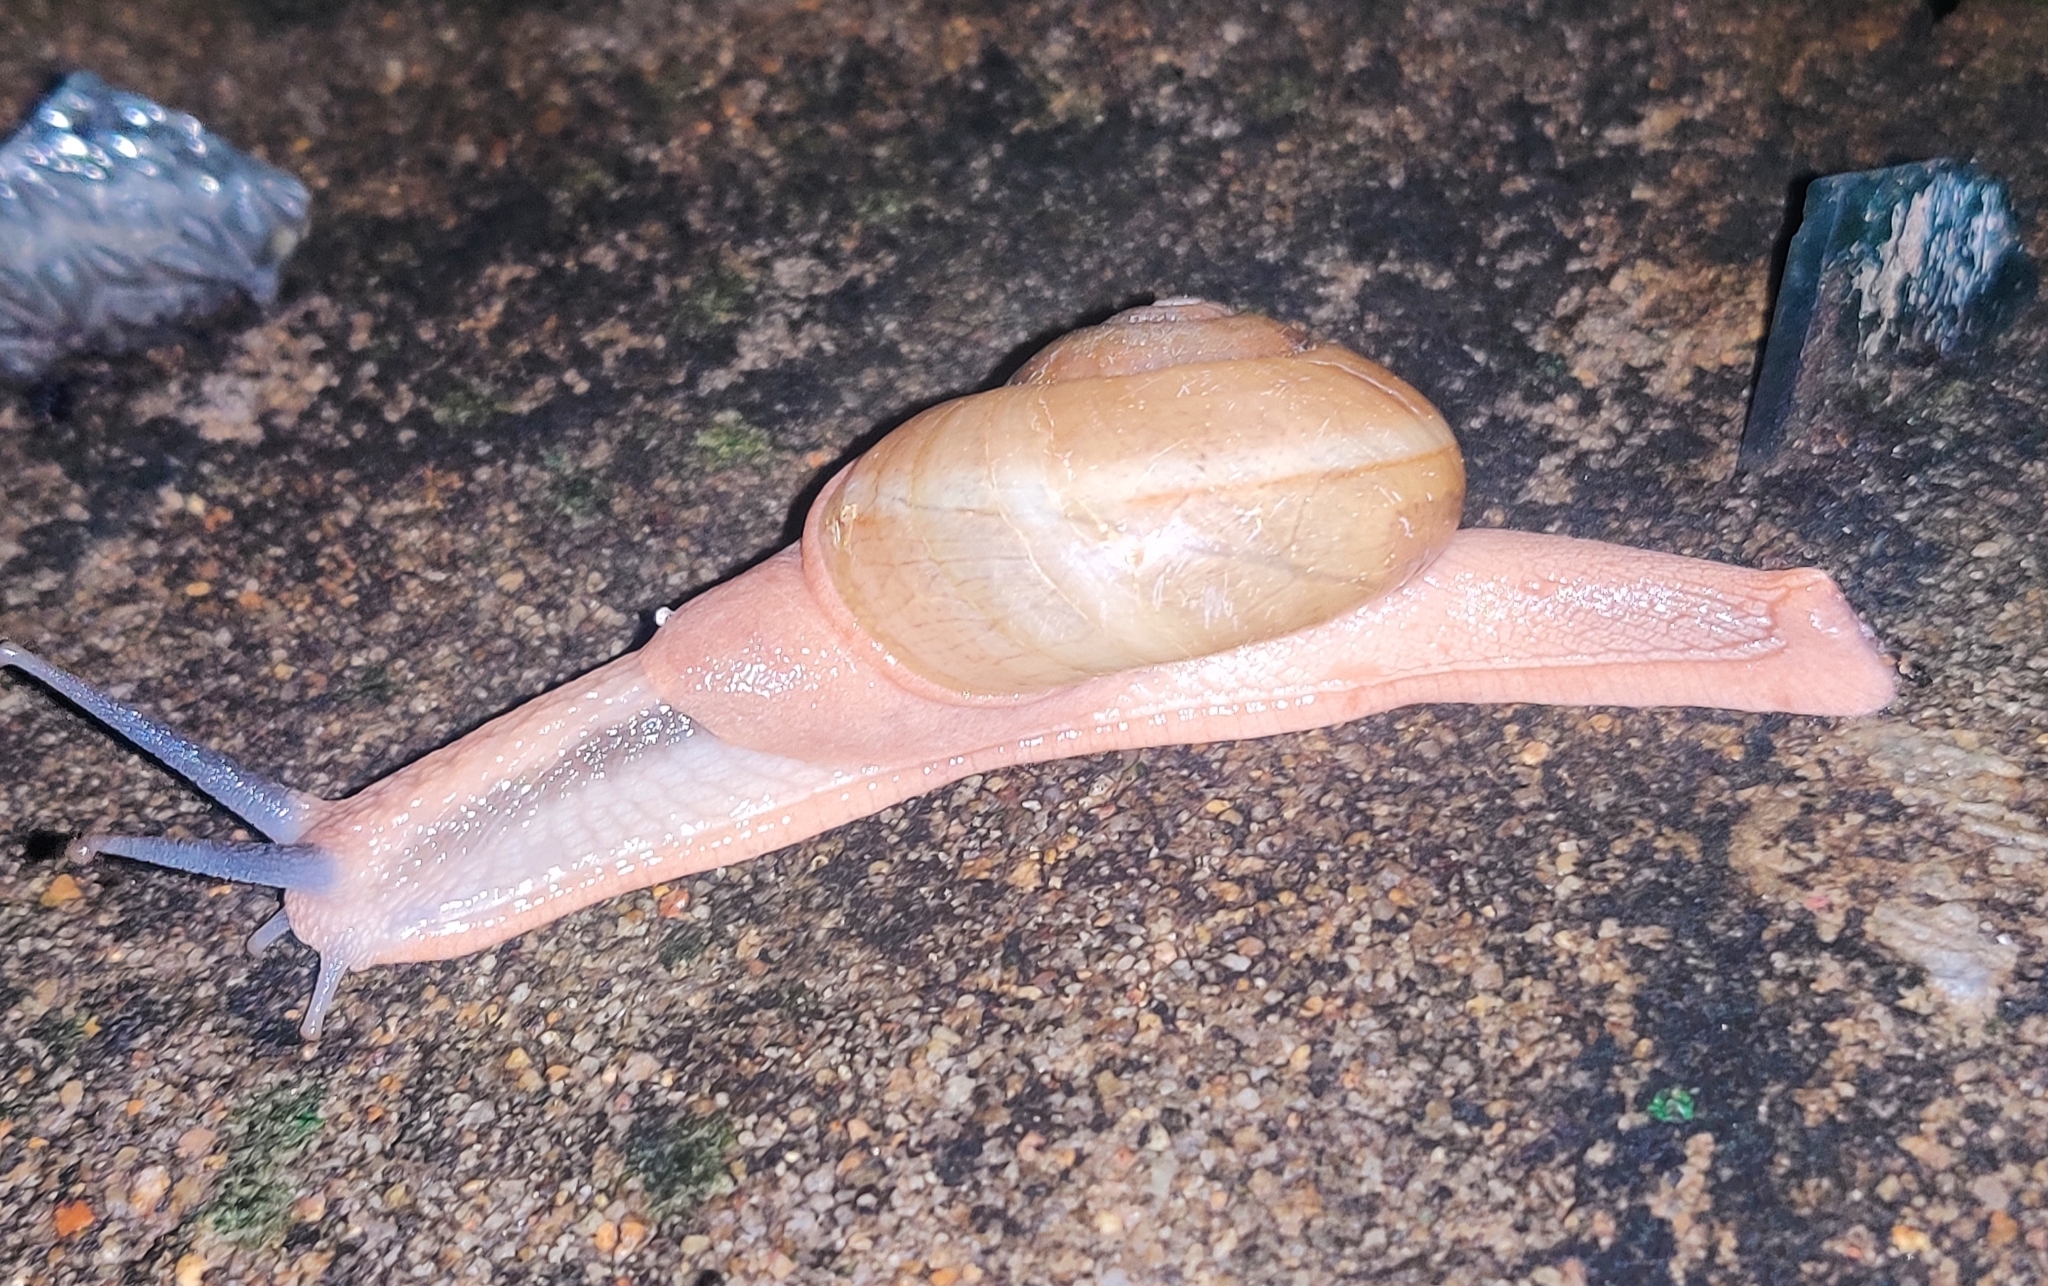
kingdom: Animalia
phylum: Mollusca
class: Gastropoda
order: Stylommatophora
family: Ariophantidae
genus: Ariophanta
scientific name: Ariophanta exilis
